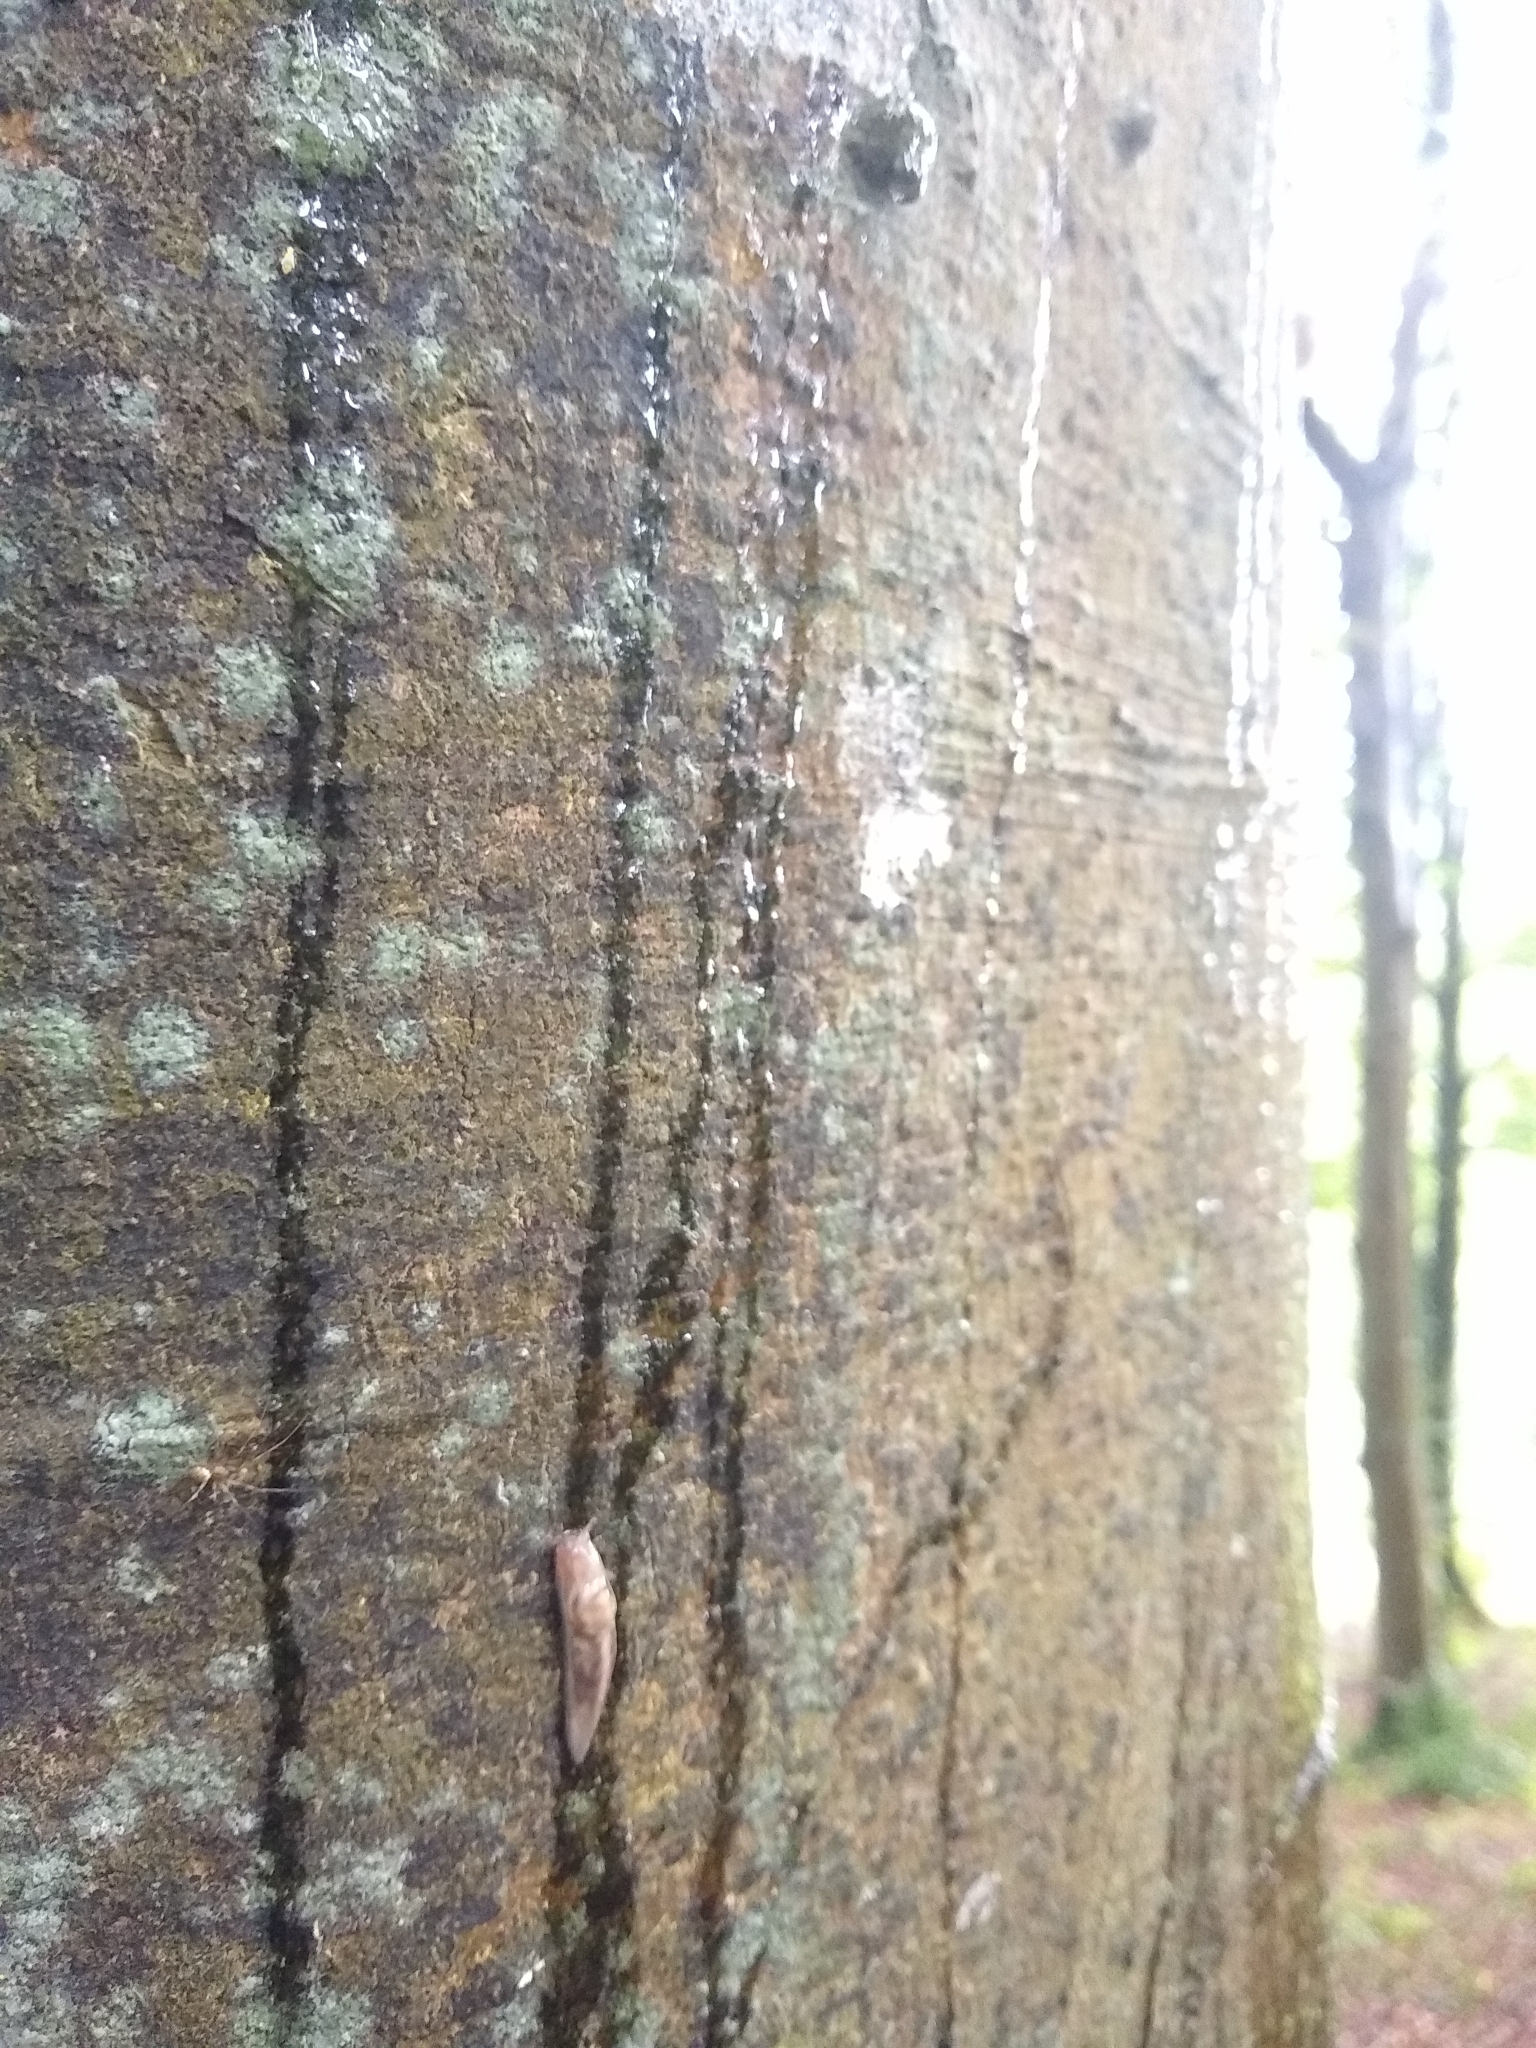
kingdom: Animalia
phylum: Mollusca
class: Gastropoda
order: Stylommatophora
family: Limacidae
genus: Lehmannia
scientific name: Lehmannia marginata
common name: Tree slug
